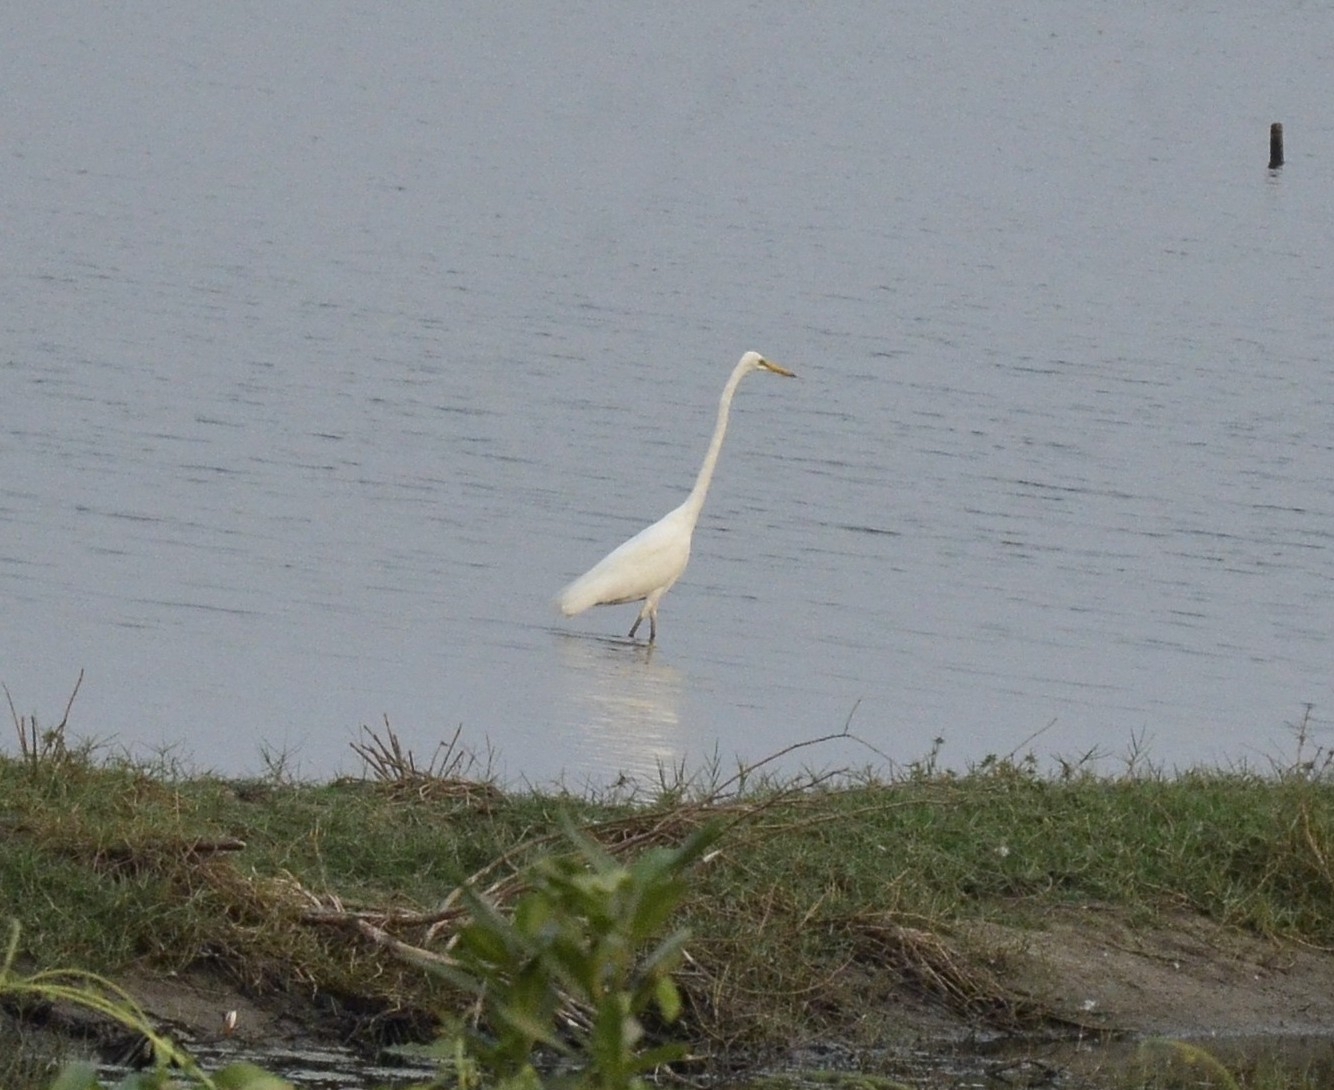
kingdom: Animalia
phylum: Chordata
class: Aves
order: Pelecaniformes
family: Ardeidae
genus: Ardea
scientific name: Ardea alba
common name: Great egret
